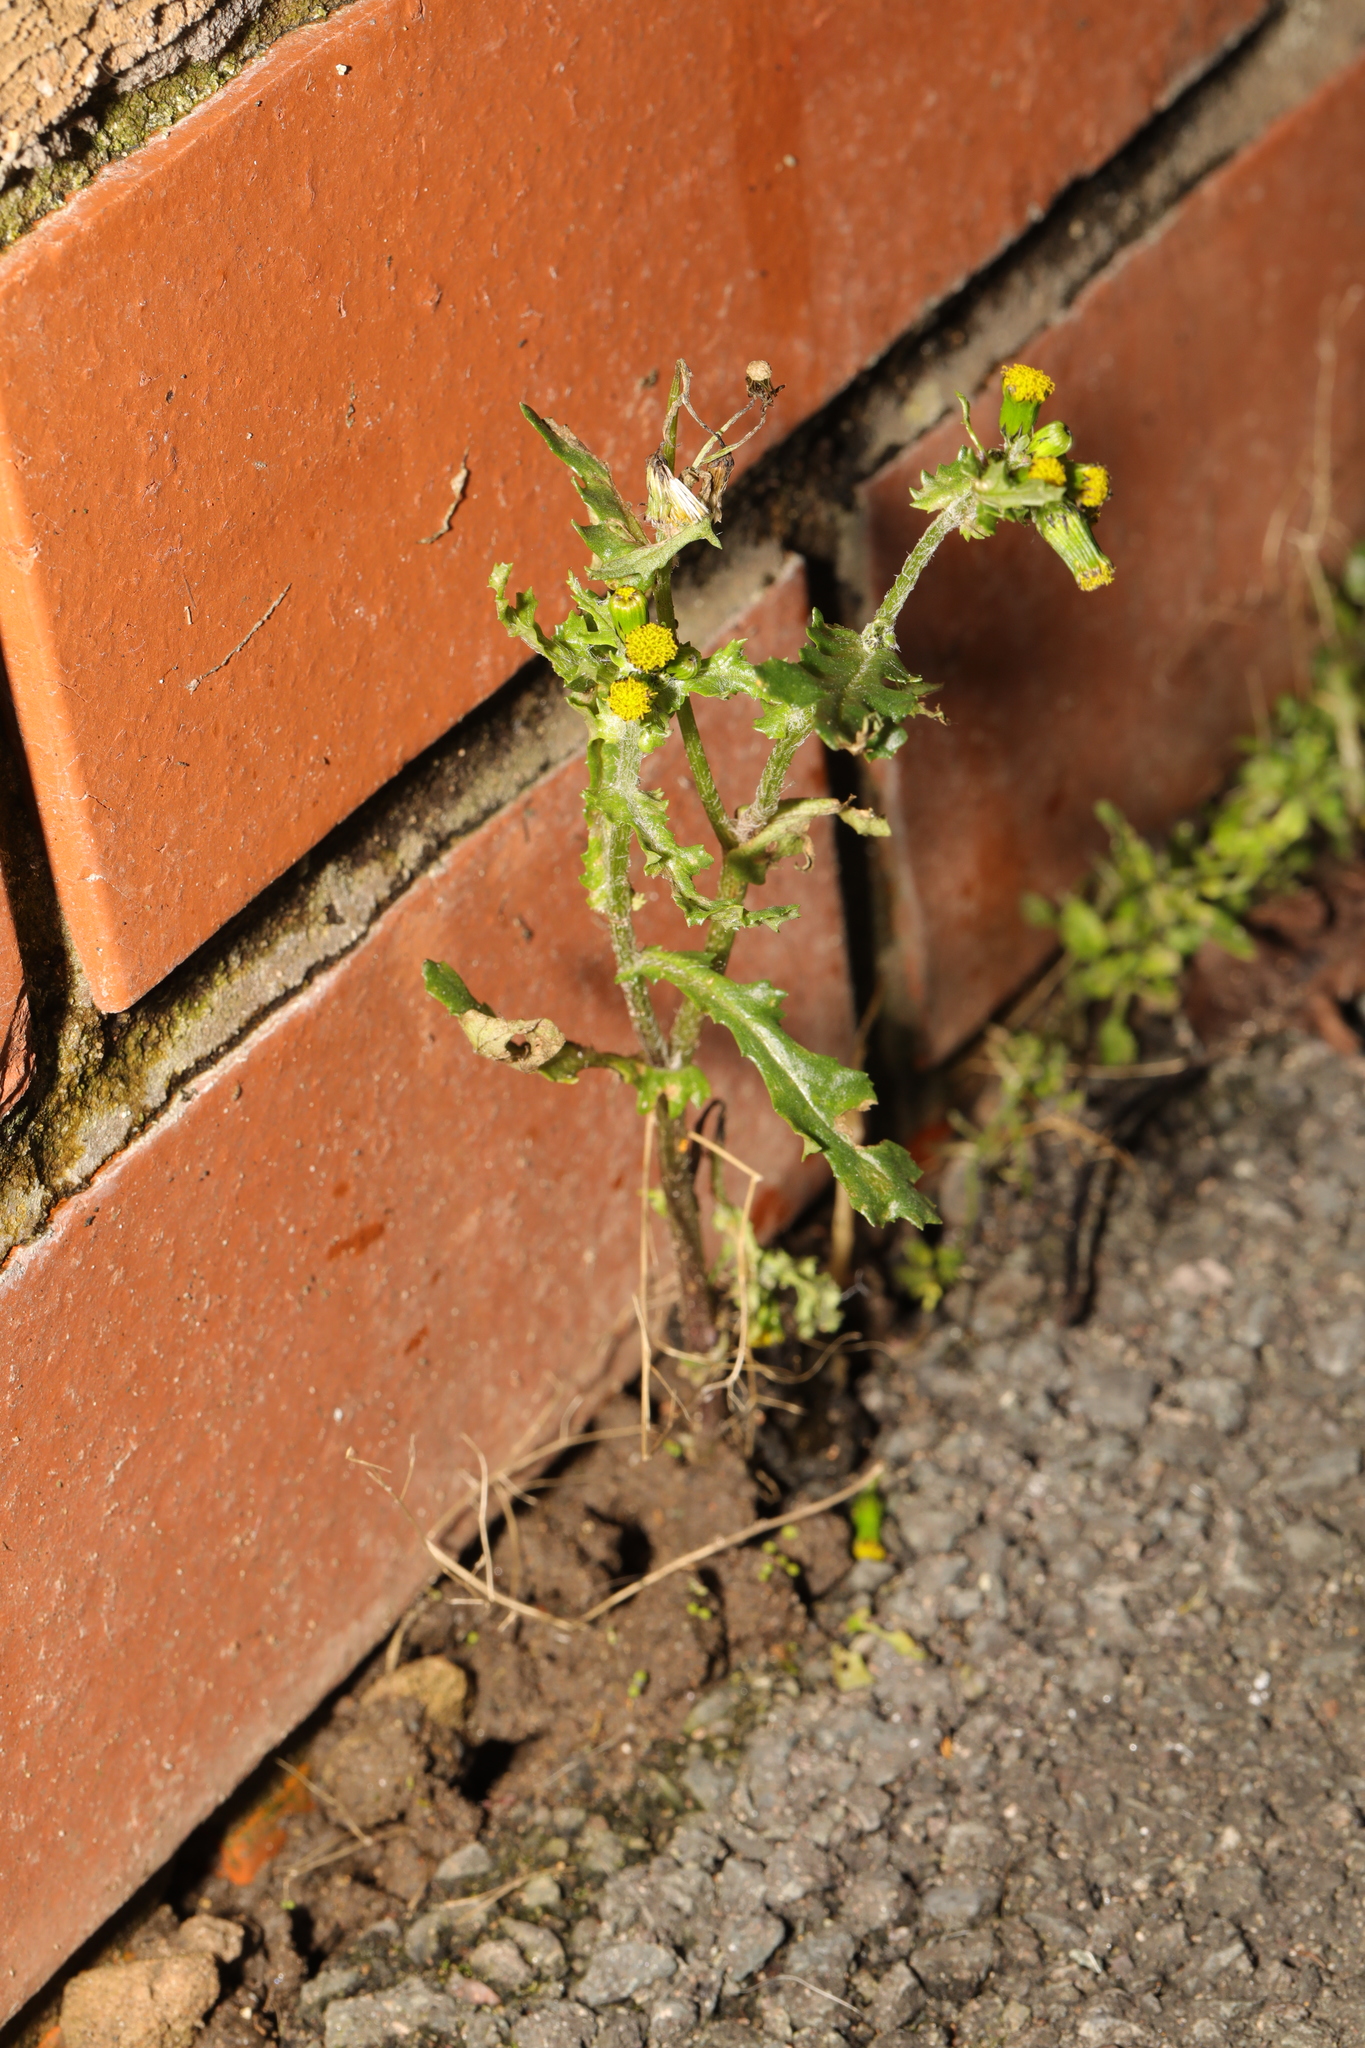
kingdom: Plantae
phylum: Tracheophyta
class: Magnoliopsida
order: Asterales
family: Asteraceae
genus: Senecio
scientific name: Senecio vulgaris
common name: Old-man-in-the-spring
